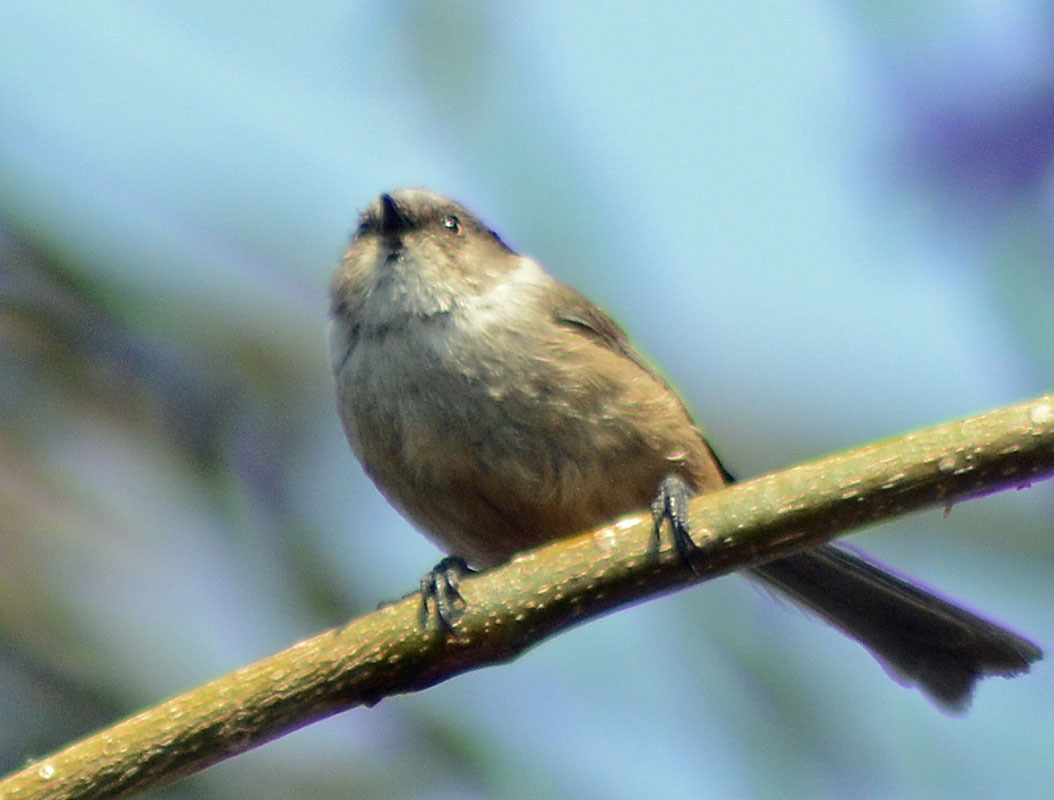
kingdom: Animalia
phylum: Chordata
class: Aves
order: Passeriformes
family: Aegithalidae
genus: Psaltriparus
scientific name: Psaltriparus minimus
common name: American bushtit
